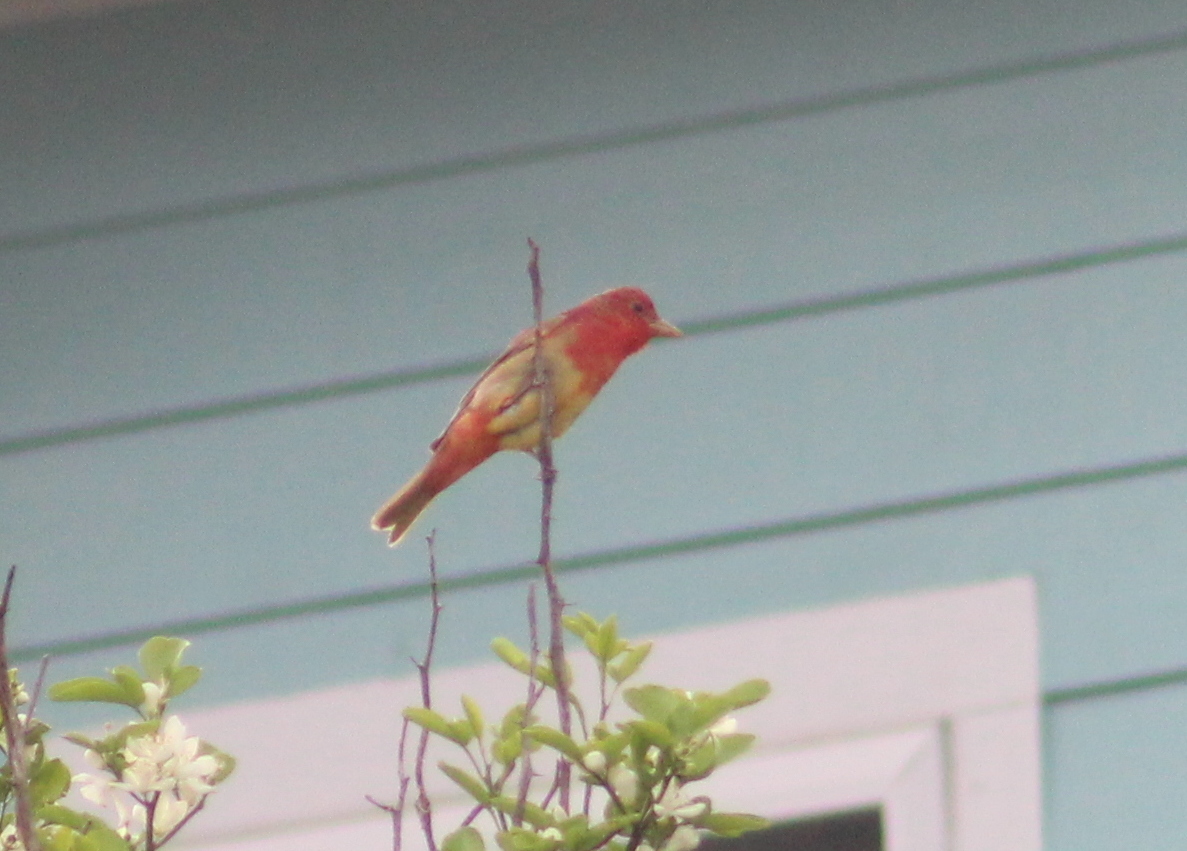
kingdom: Animalia
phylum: Chordata
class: Aves
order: Passeriformes
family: Cardinalidae
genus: Piranga
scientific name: Piranga rubra
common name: Summer tanager
